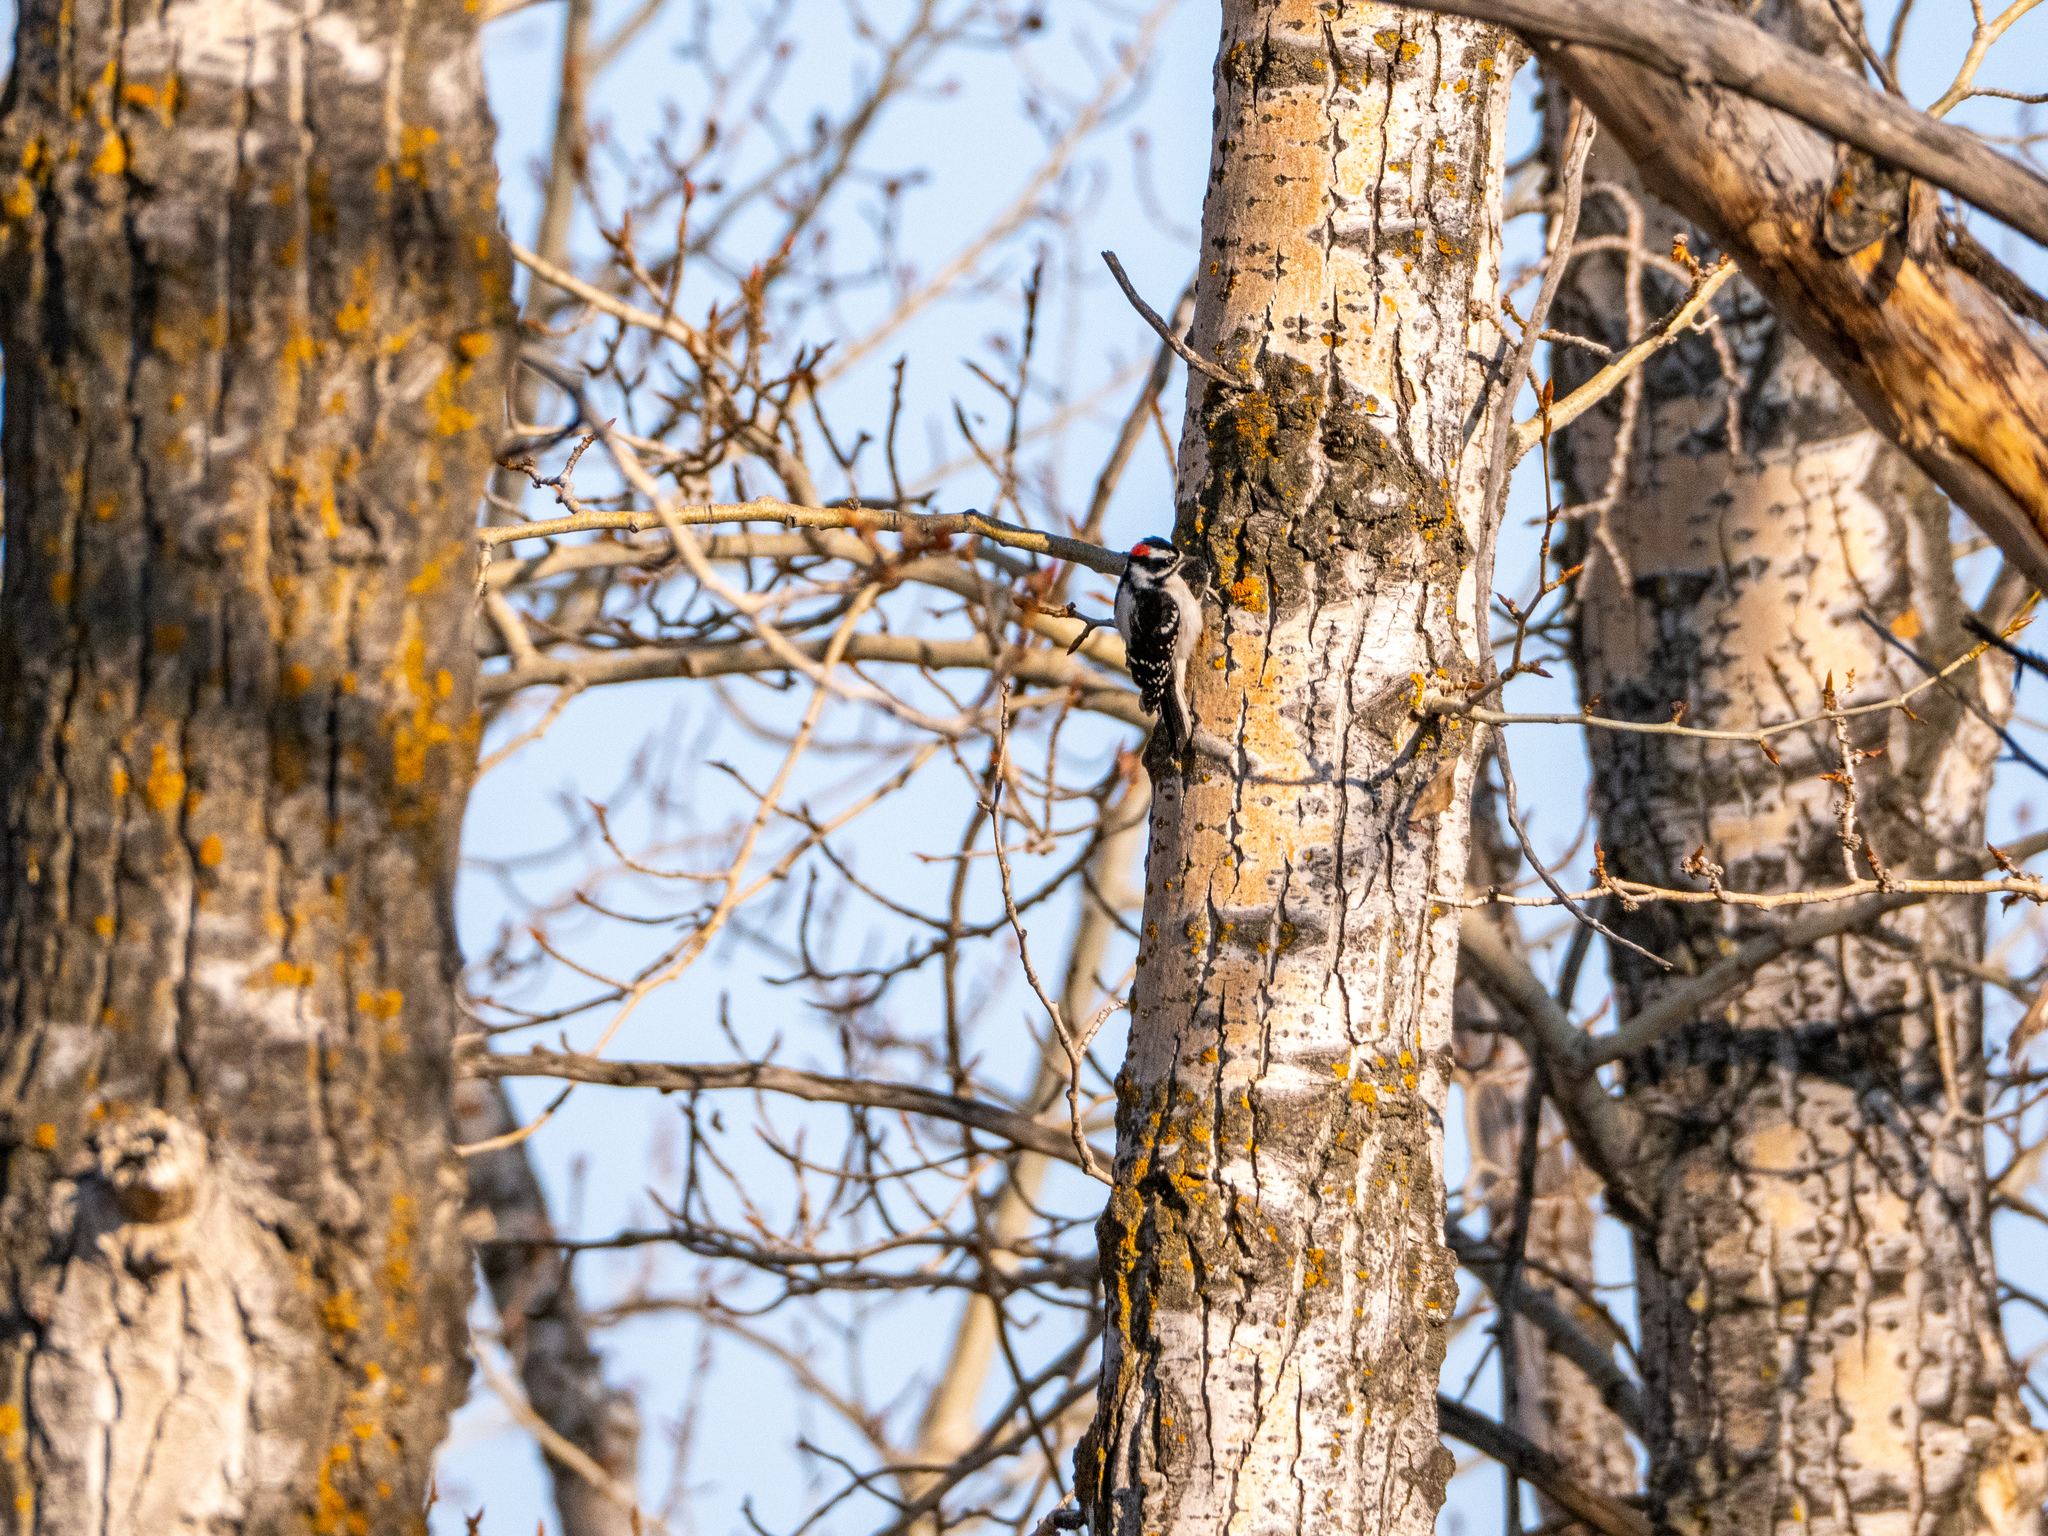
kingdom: Animalia
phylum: Chordata
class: Aves
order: Piciformes
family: Picidae
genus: Dryobates
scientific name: Dryobates pubescens
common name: Downy woodpecker
